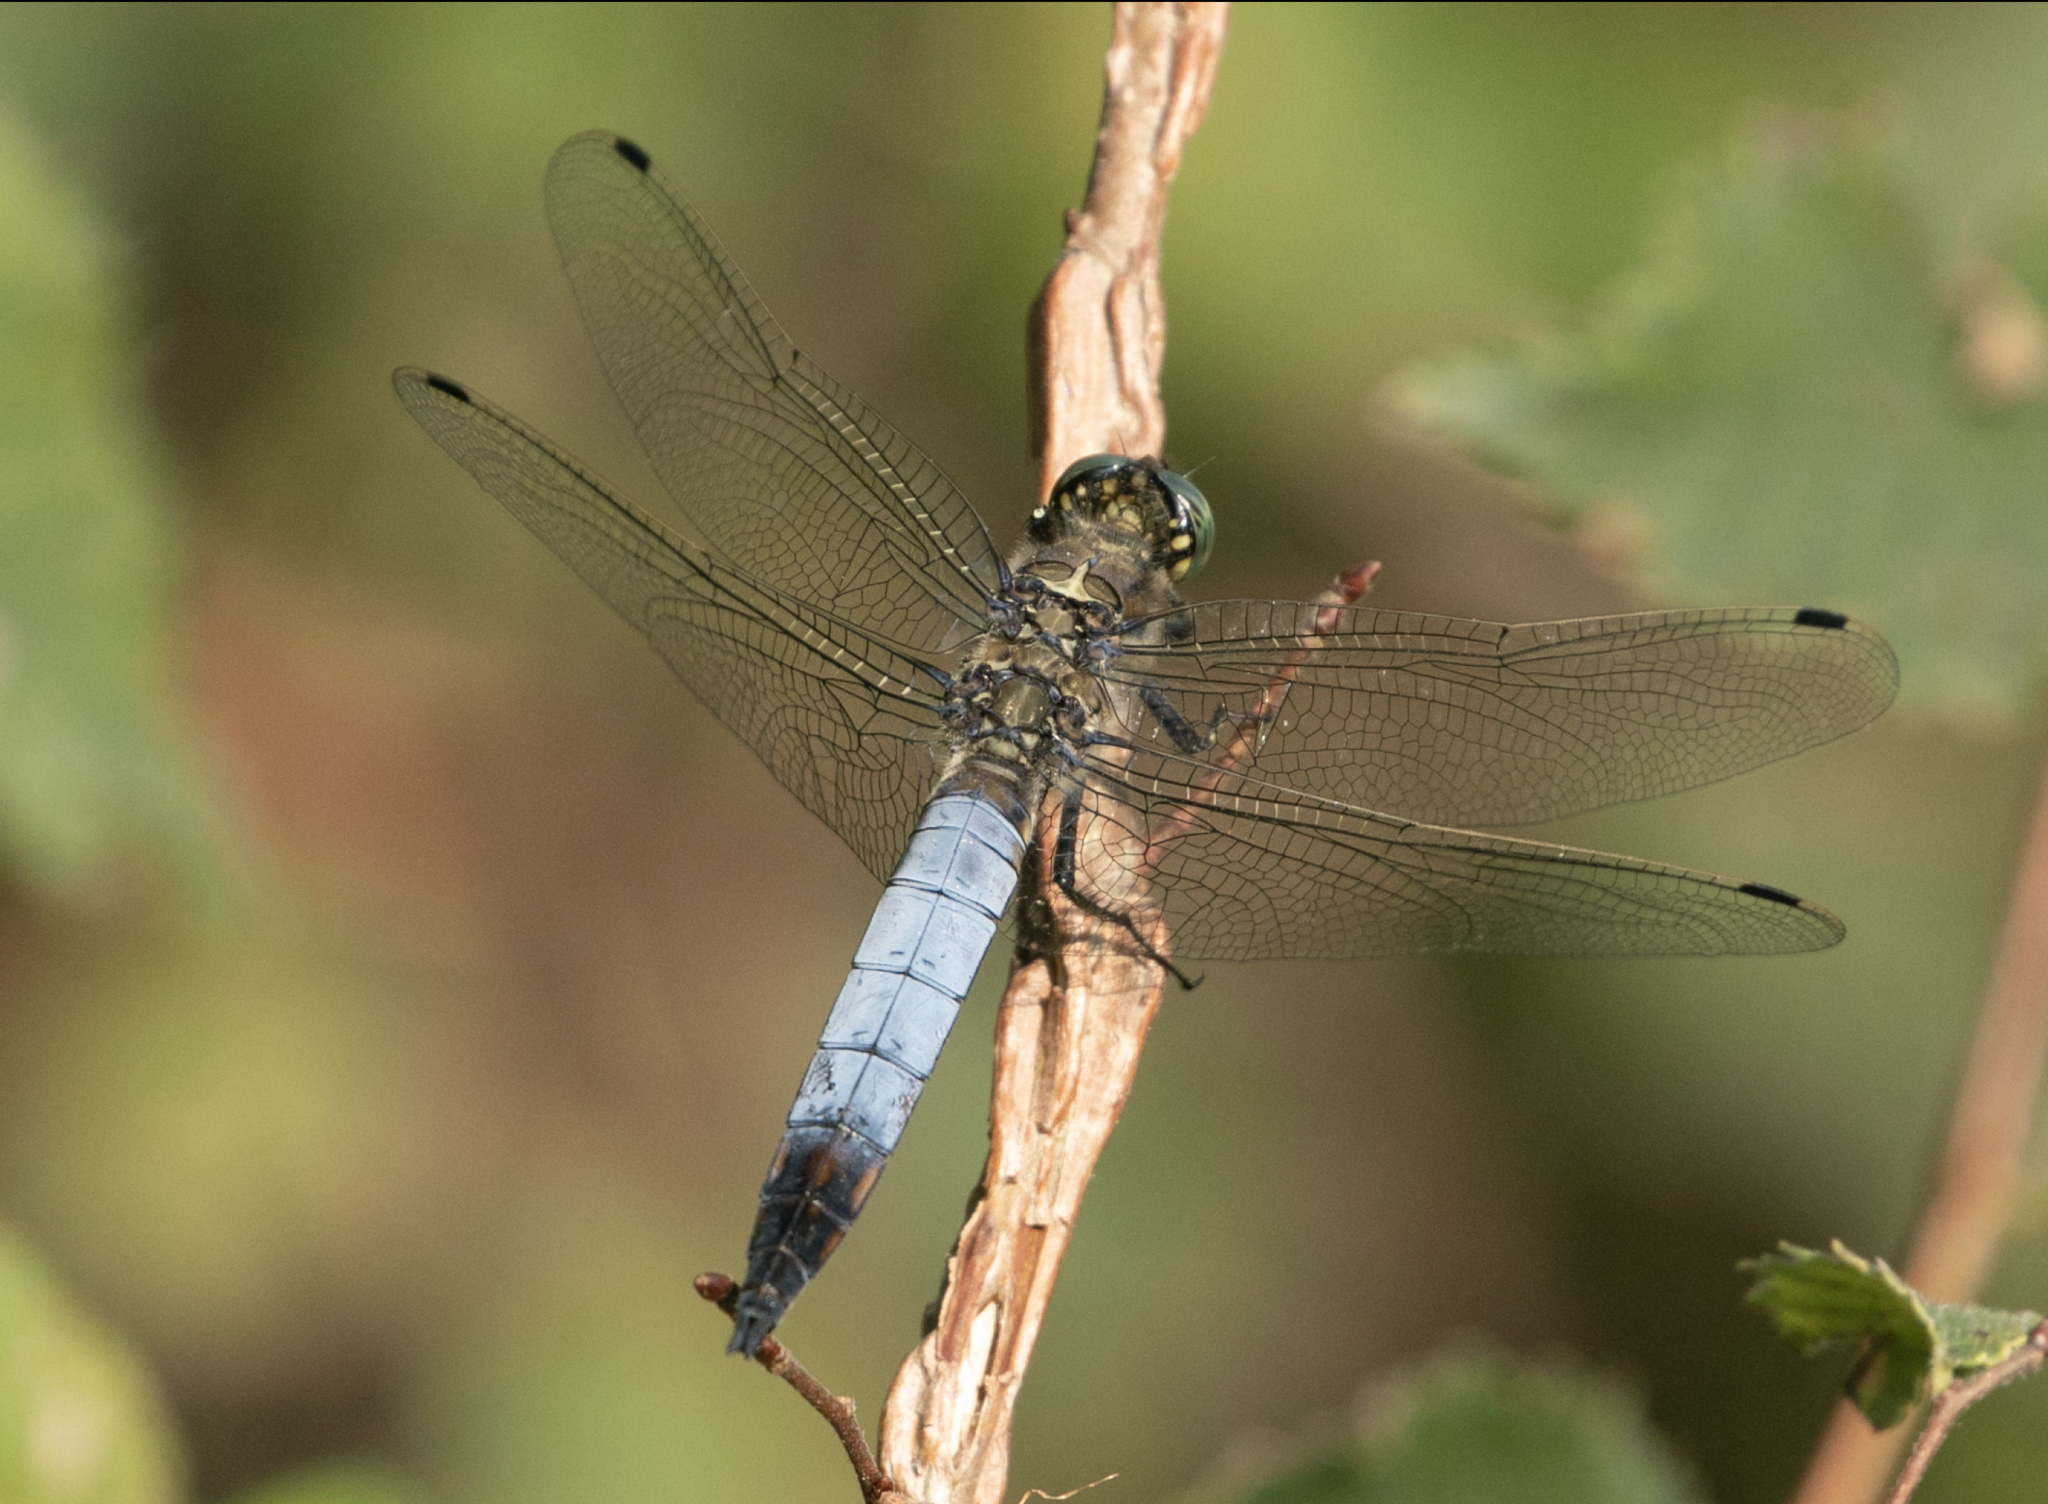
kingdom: Animalia
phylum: Arthropoda
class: Insecta
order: Odonata
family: Libellulidae
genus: Orthetrum
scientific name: Orthetrum cancellatum
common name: Black-tailed skimmer
